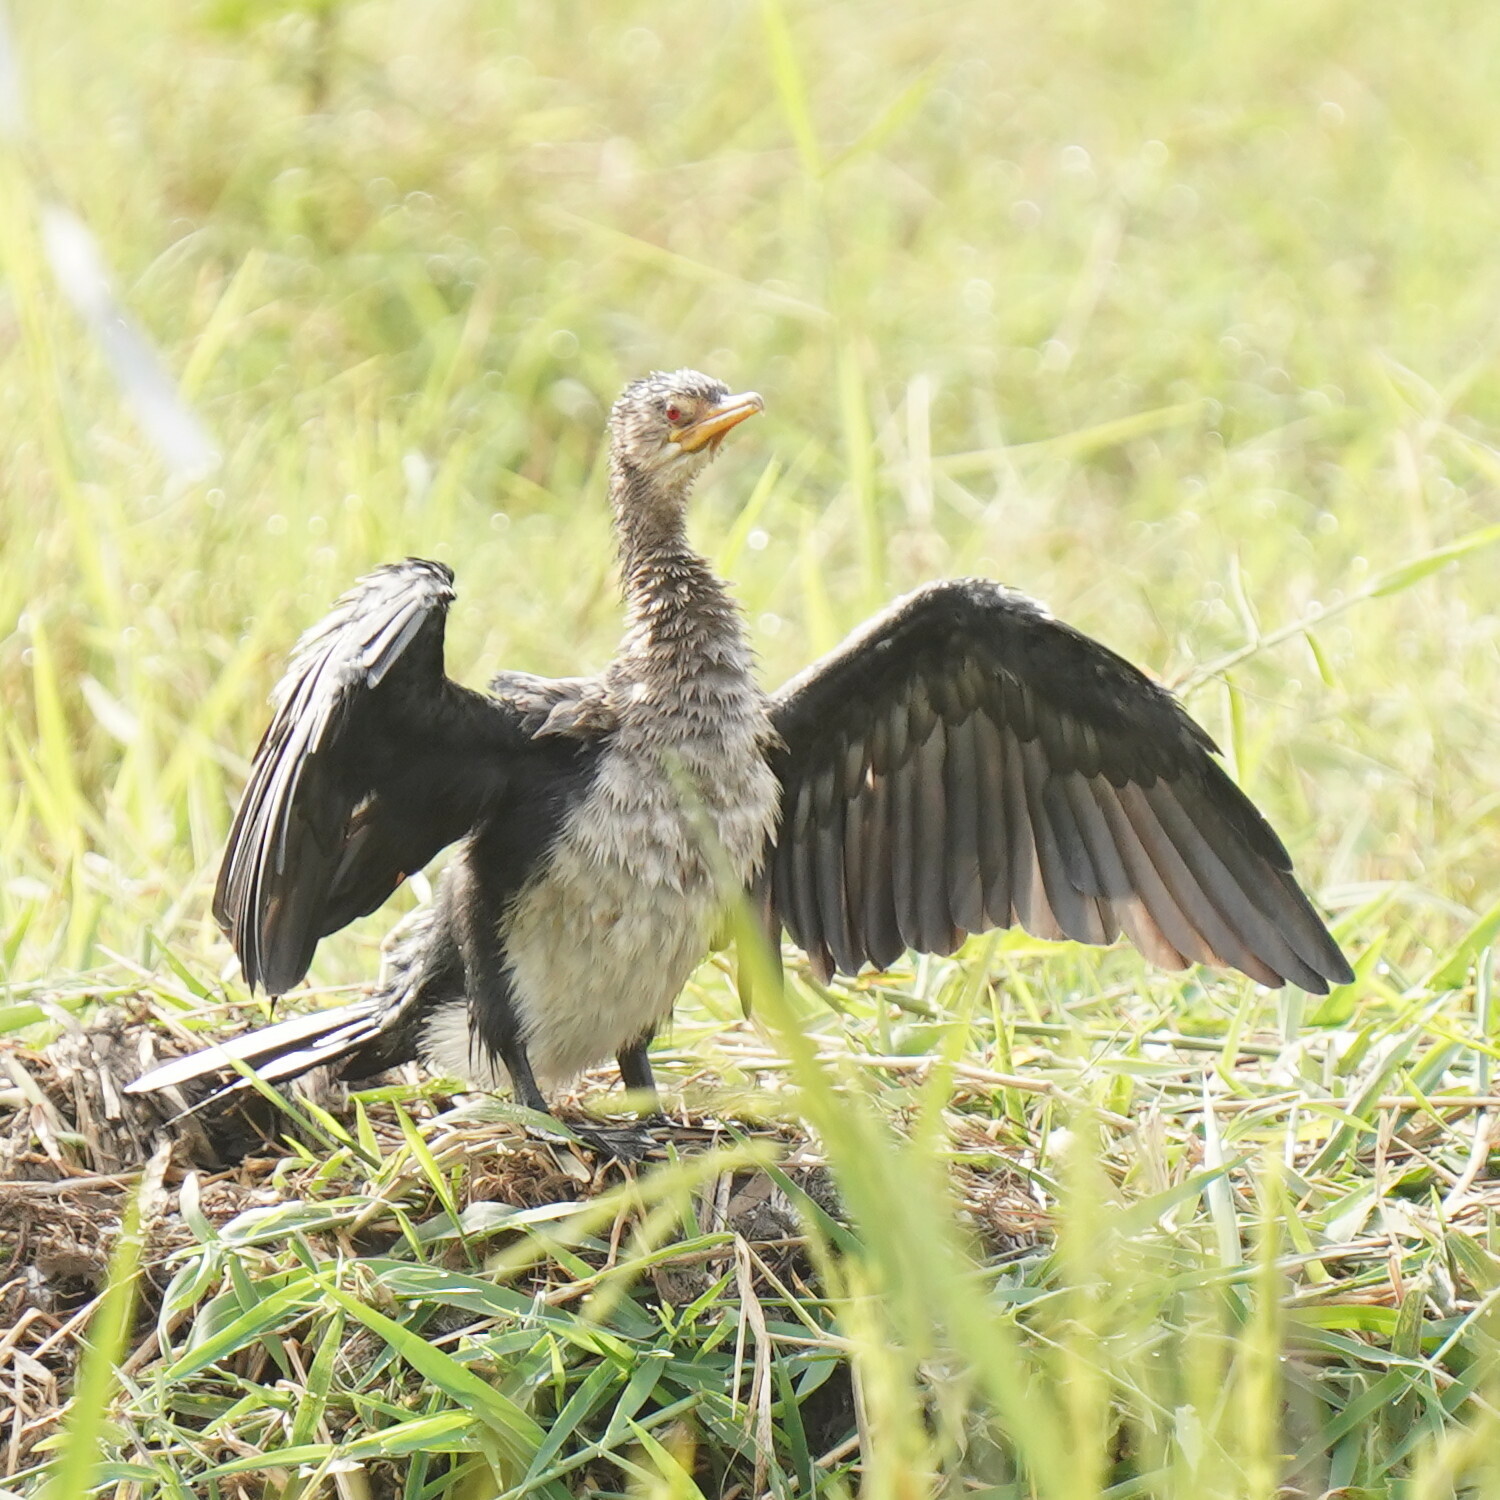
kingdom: Animalia
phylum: Chordata
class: Aves
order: Suliformes
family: Phalacrocoracidae
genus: Microcarbo
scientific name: Microcarbo africanus
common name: Long-tailed cormorant
